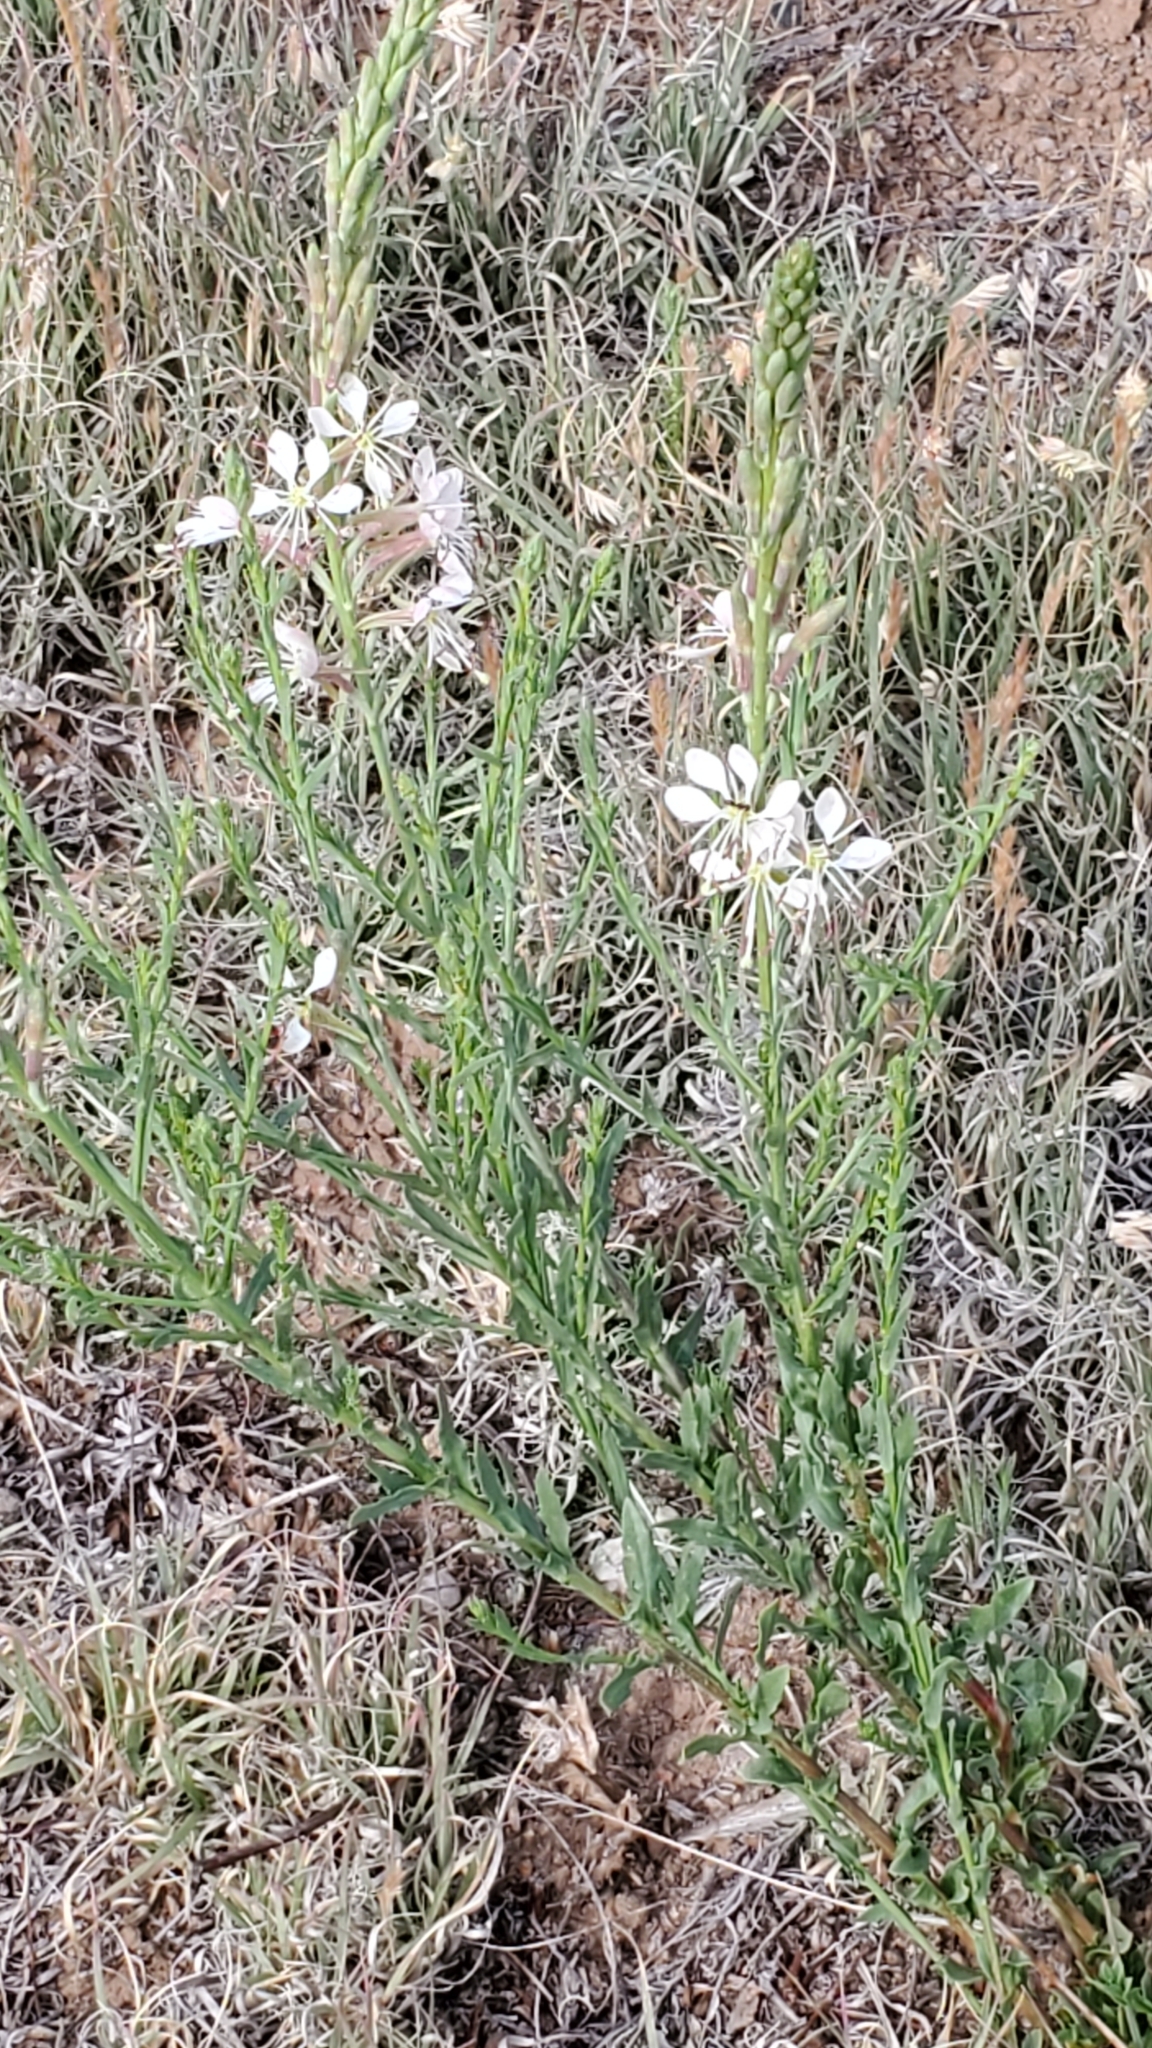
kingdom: Plantae
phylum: Tracheophyta
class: Magnoliopsida
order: Myrtales
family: Onagraceae
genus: Oenothera
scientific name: Oenothera suffrutescens
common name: Scarlet beeblossom
